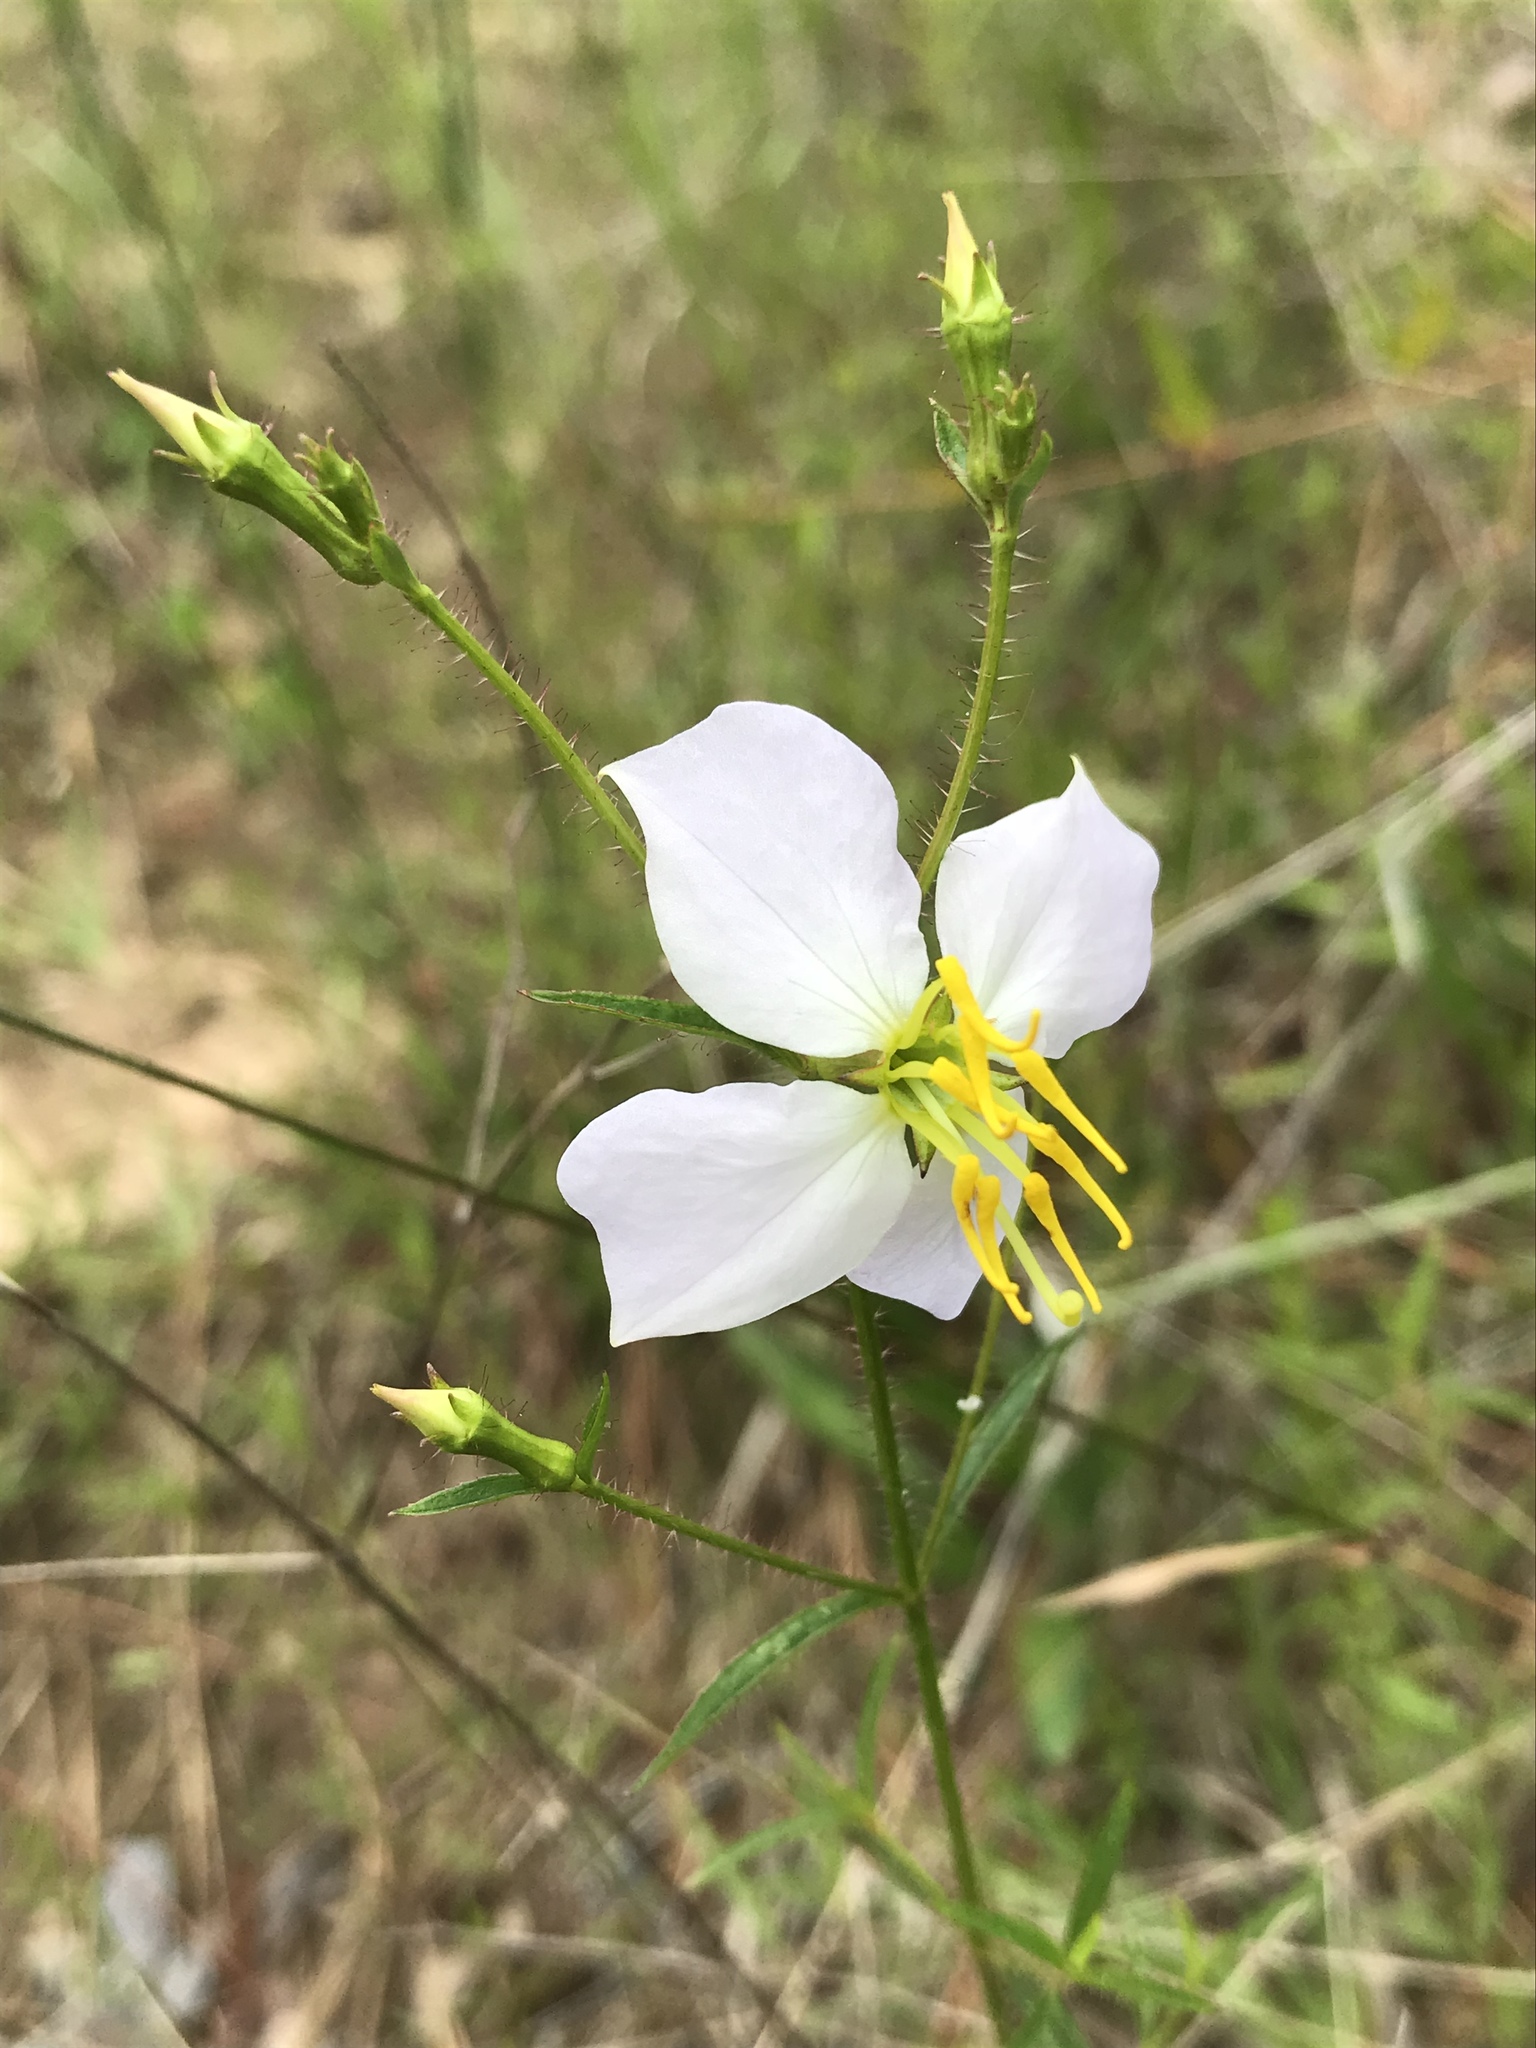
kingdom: Plantae
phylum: Tracheophyta
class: Magnoliopsida
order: Myrtales
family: Melastomataceae
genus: Rhexia
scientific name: Rhexia mariana
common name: Dull meadow-pitcher
